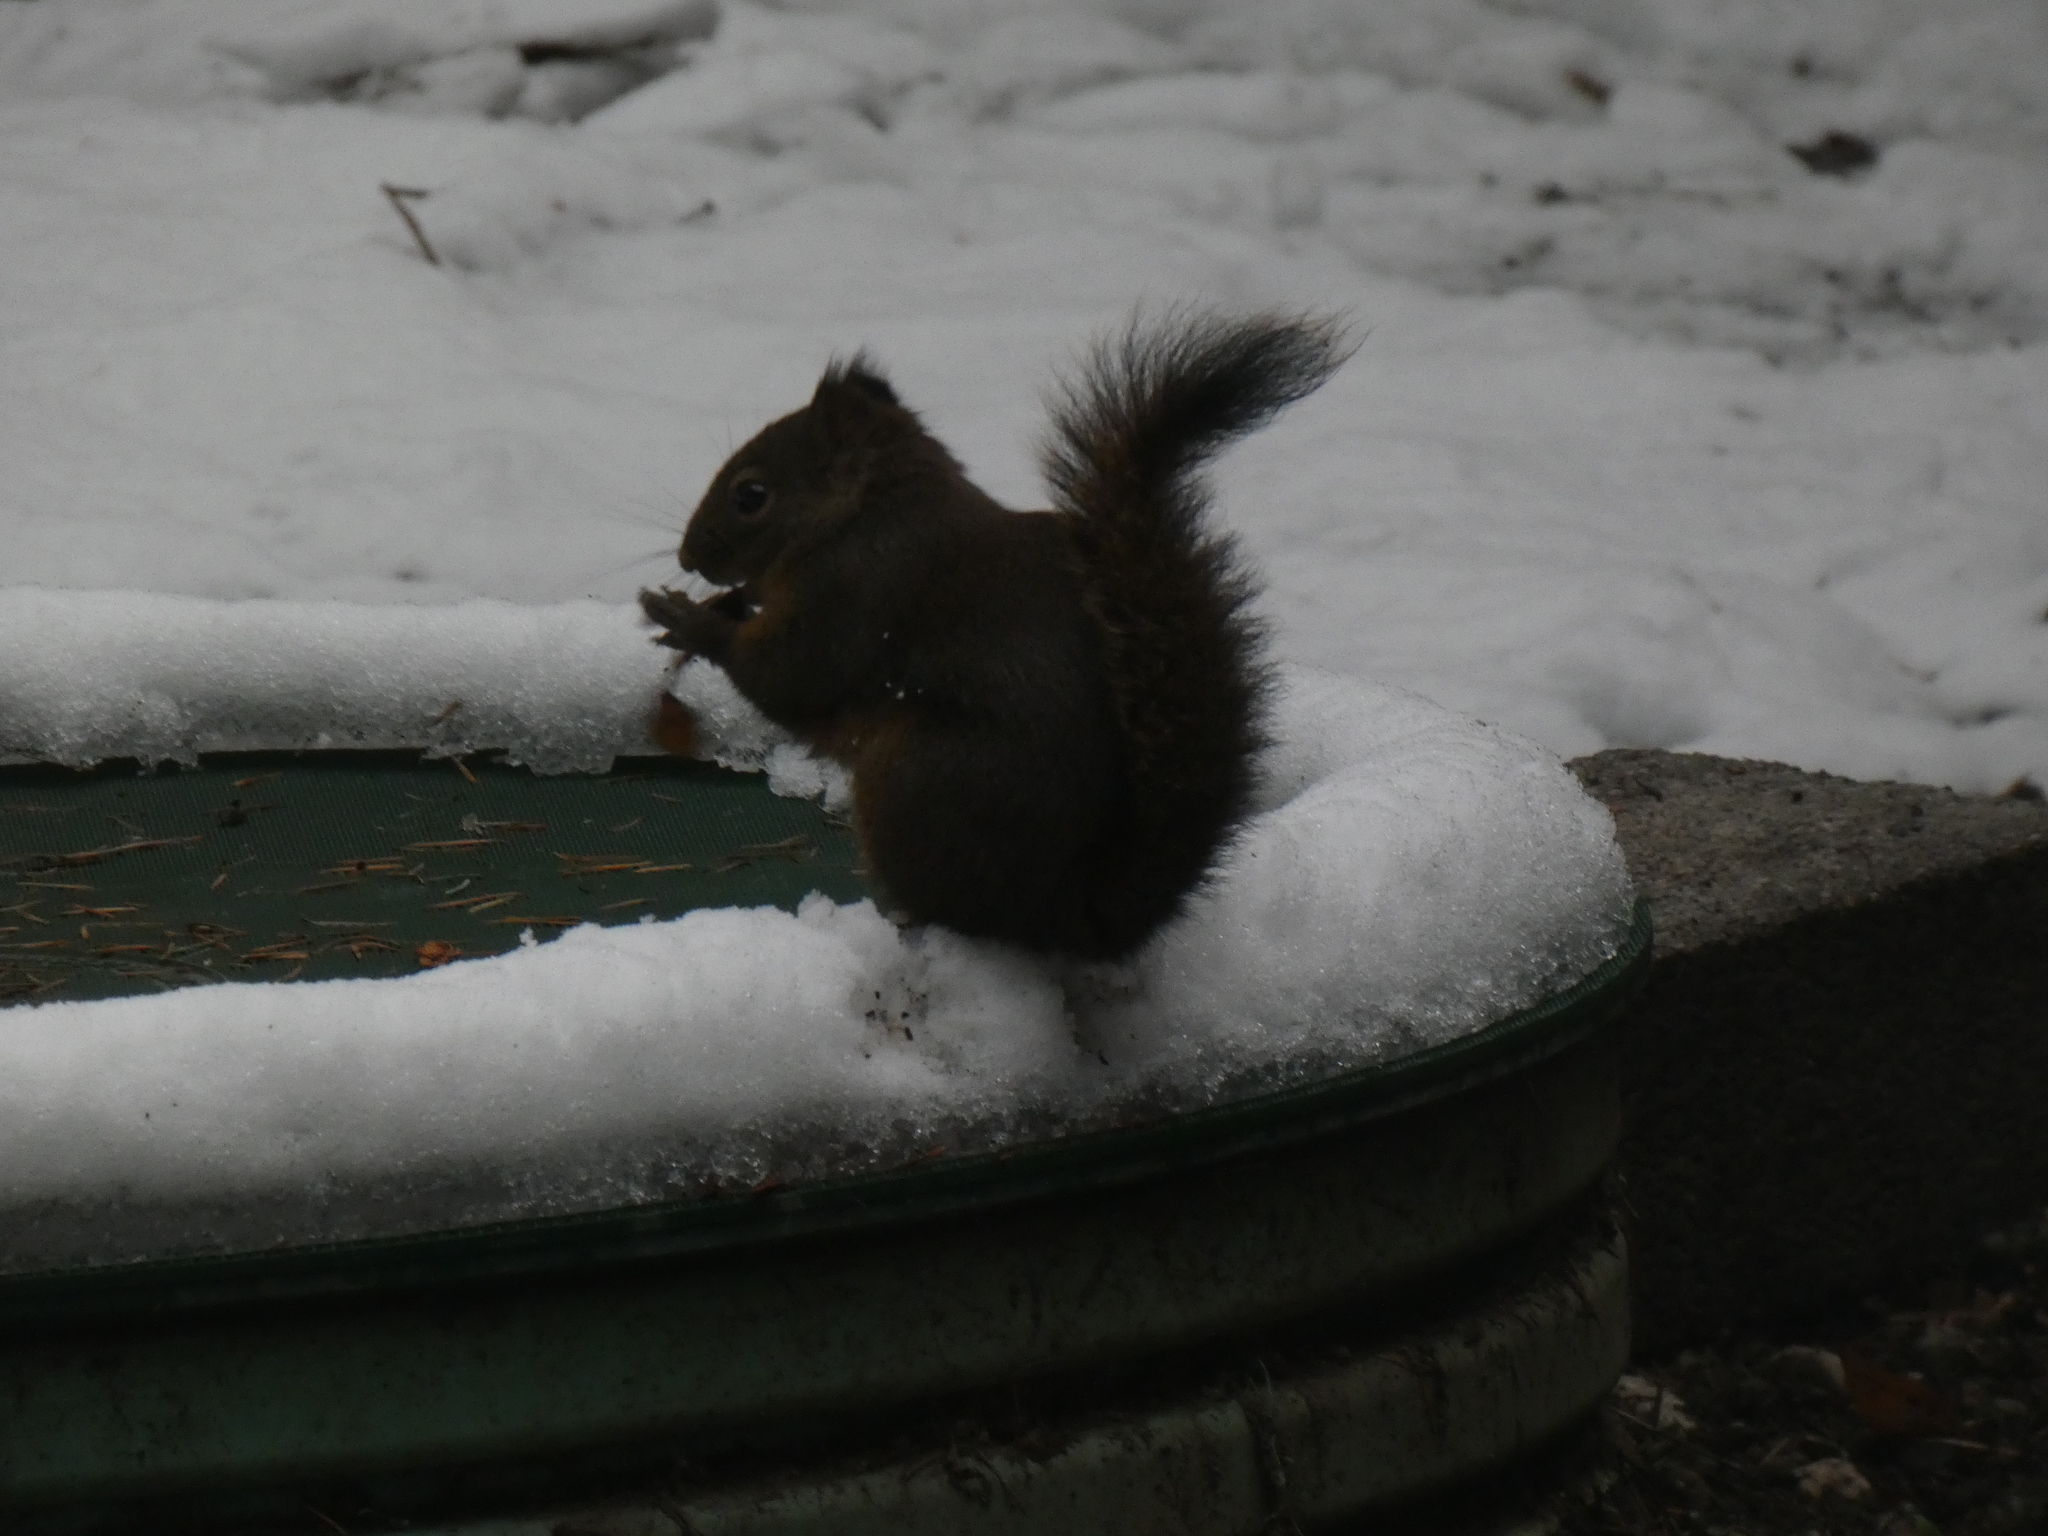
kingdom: Animalia
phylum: Chordata
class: Mammalia
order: Rodentia
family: Sciuridae
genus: Tamiasciurus
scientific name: Tamiasciurus douglasii
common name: Douglas's squirrel
